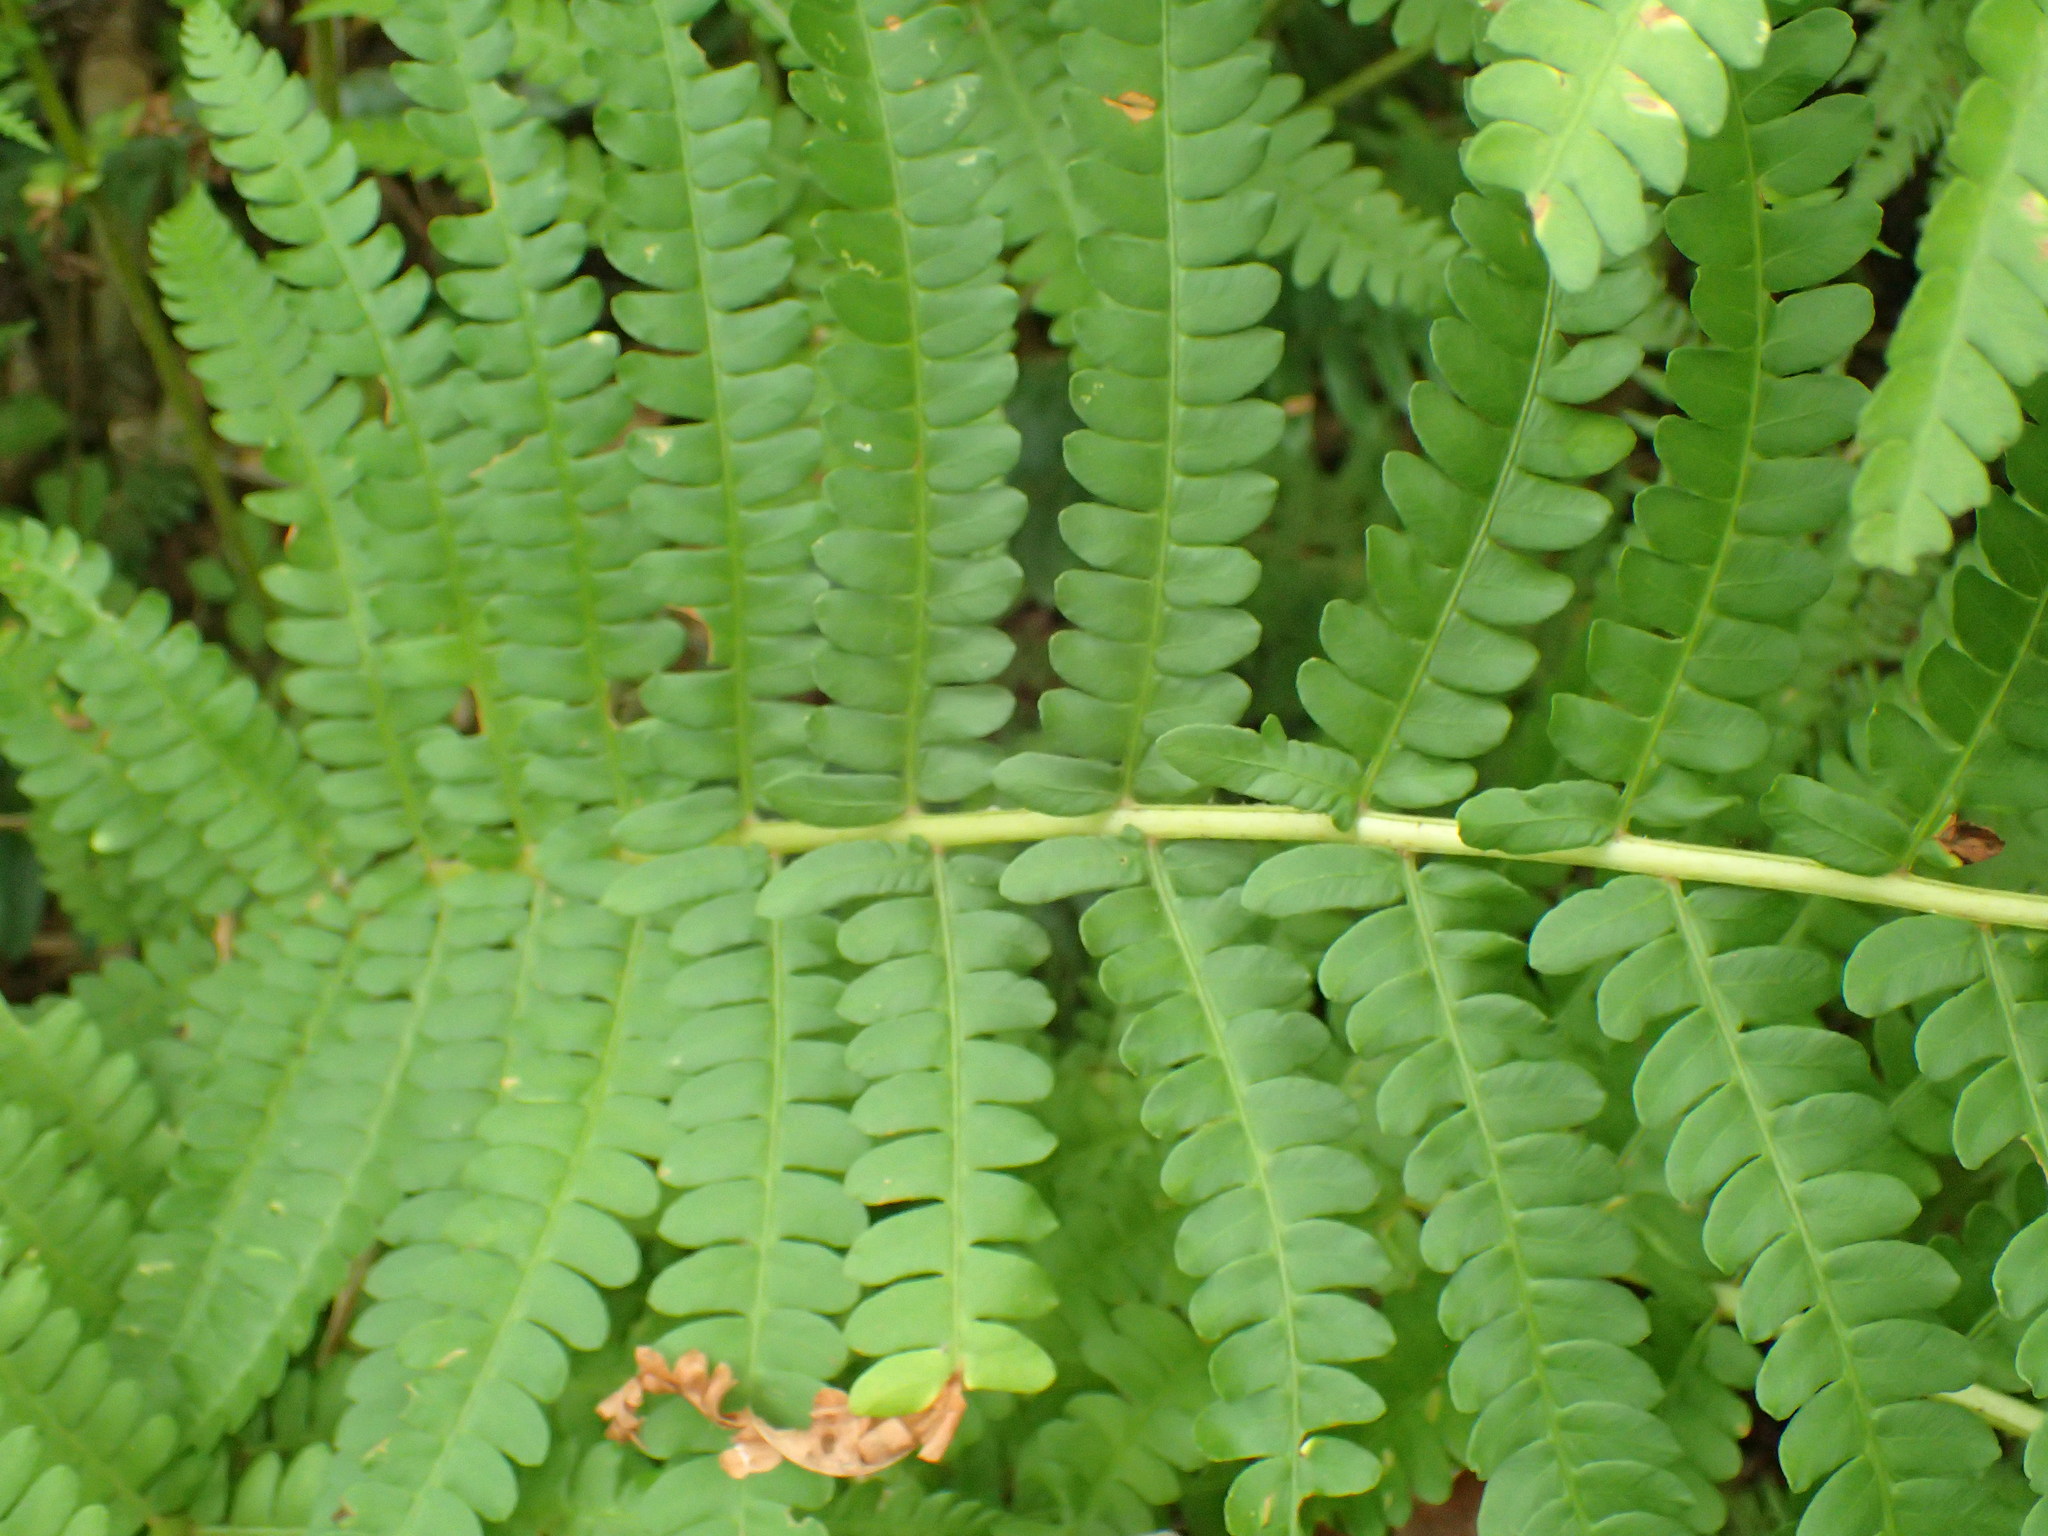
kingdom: Plantae
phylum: Tracheophyta
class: Polypodiopsida
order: Osmundales
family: Osmundaceae
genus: Osmundastrum
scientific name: Osmundastrum cinnamomeum
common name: Cinnamon fern
